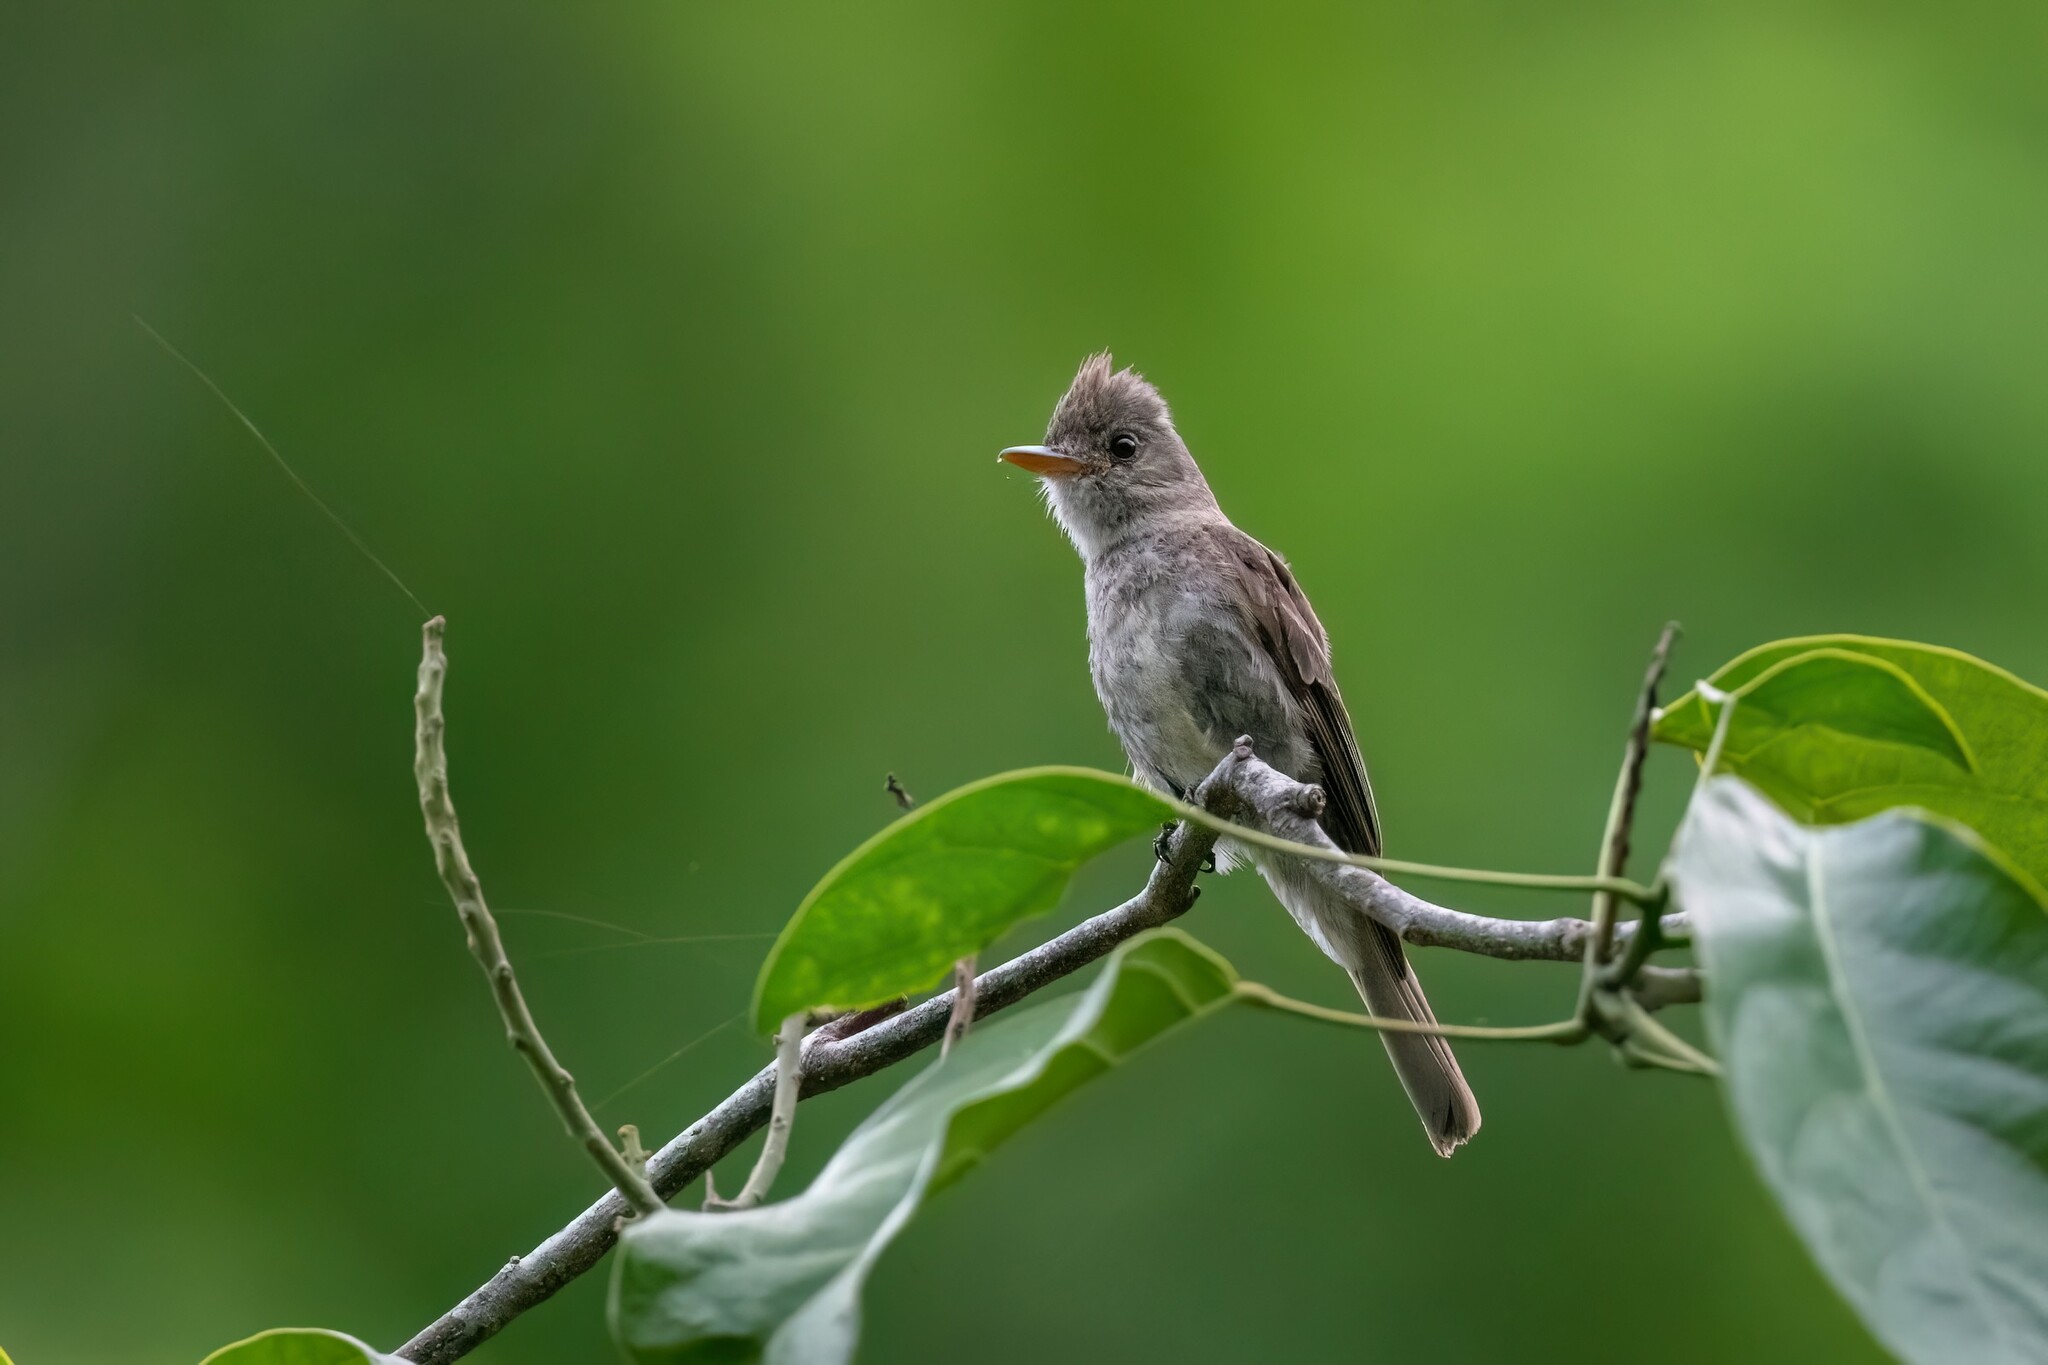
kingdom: Animalia
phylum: Chordata
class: Aves
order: Passeriformes
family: Tyrannidae
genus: Contopus
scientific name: Contopus pertinax
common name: Greater pewee
